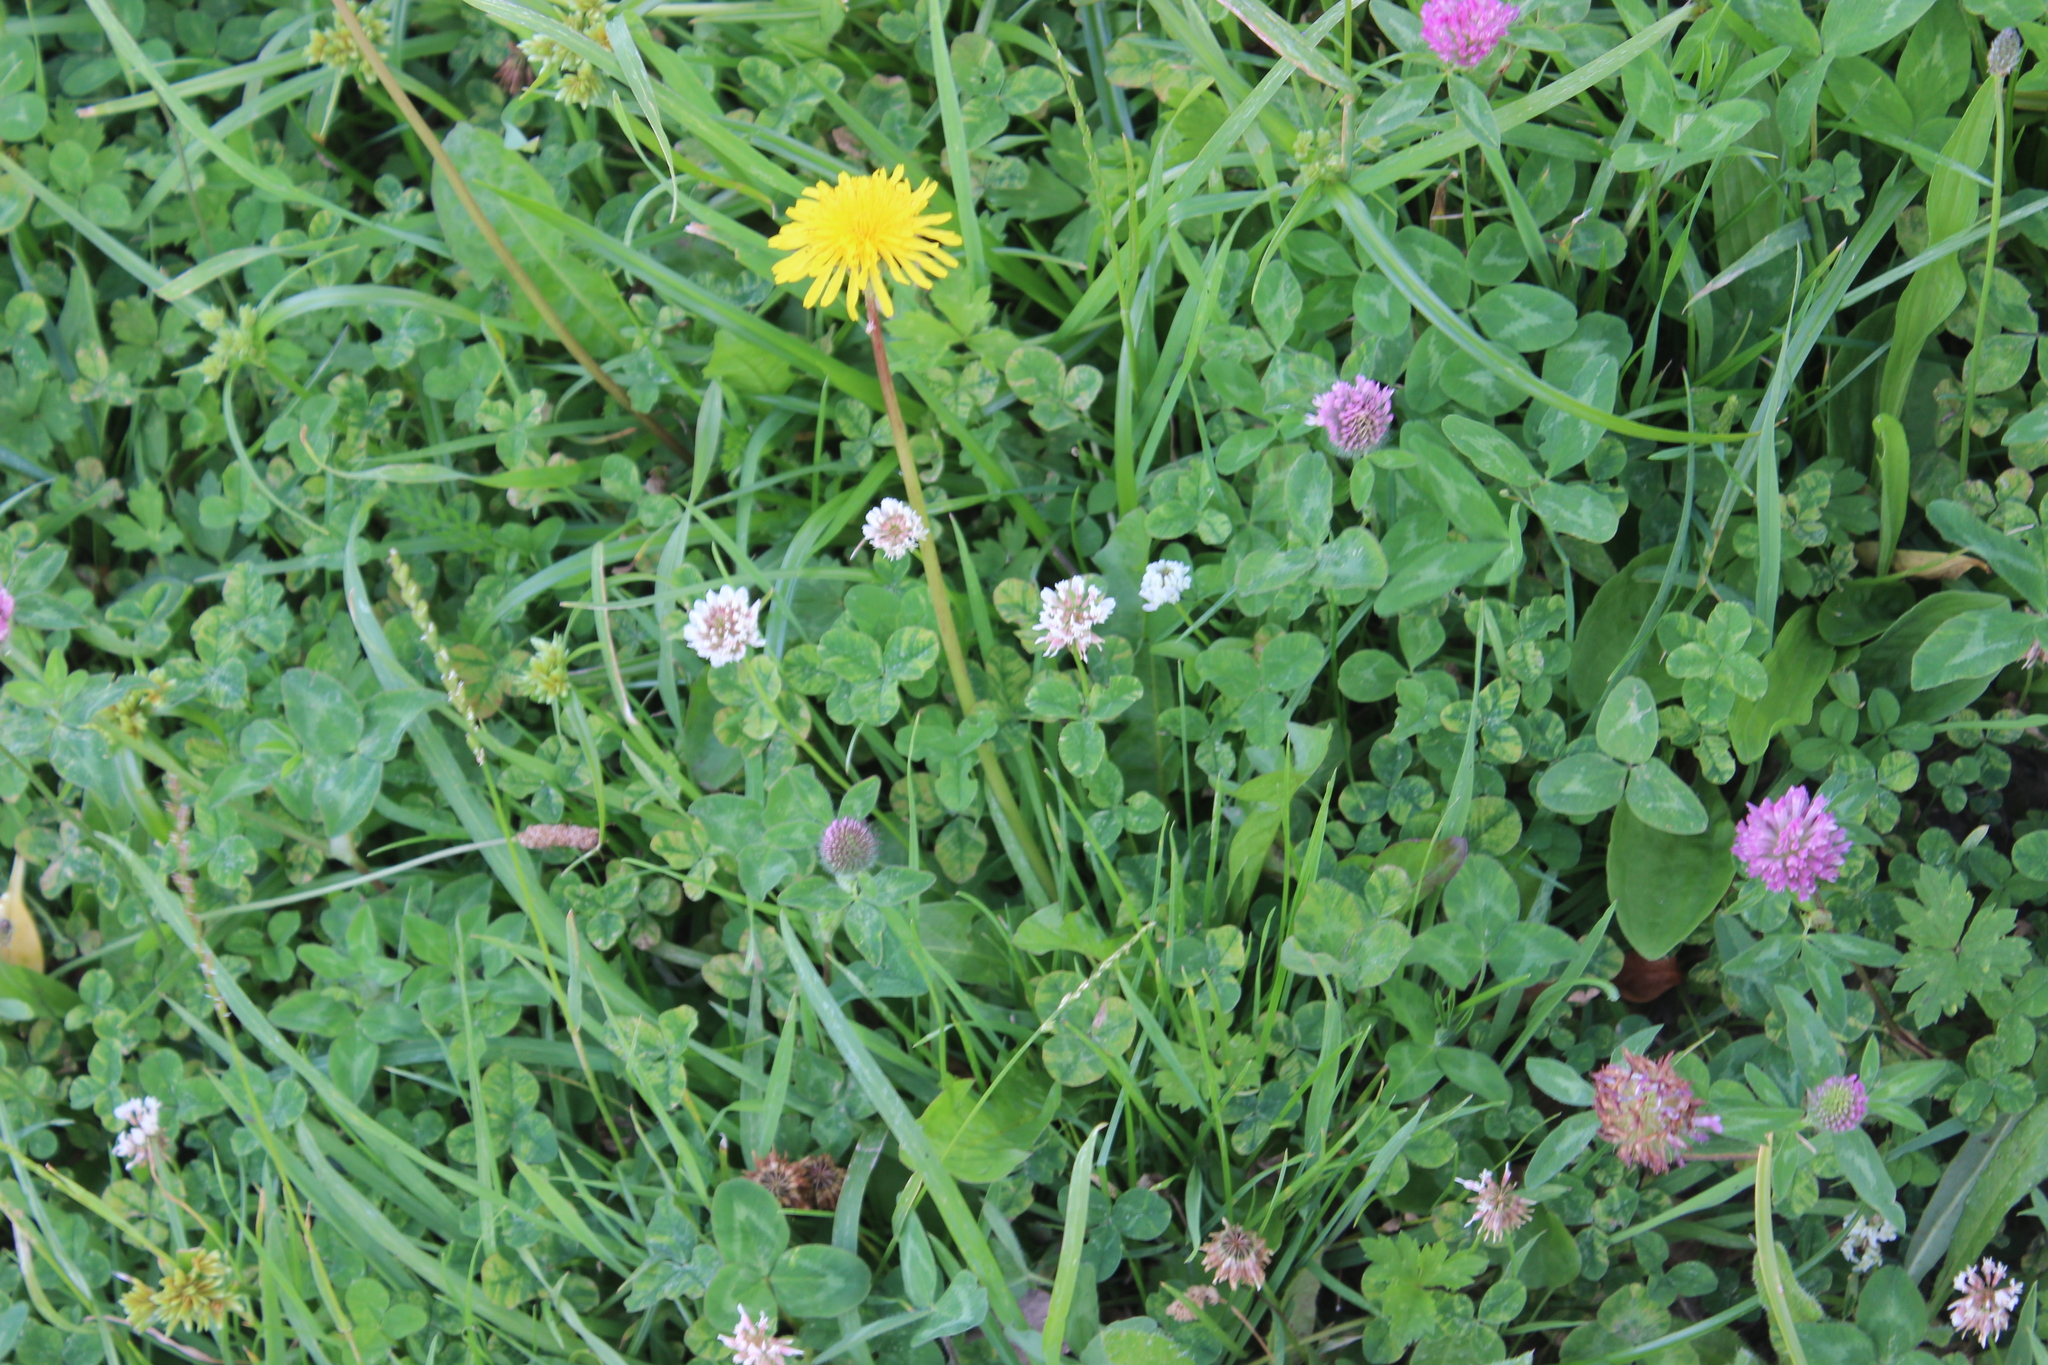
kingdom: Plantae
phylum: Tracheophyta
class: Magnoliopsida
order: Fabales
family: Fabaceae
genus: Trifolium
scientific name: Trifolium repens
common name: White clover
